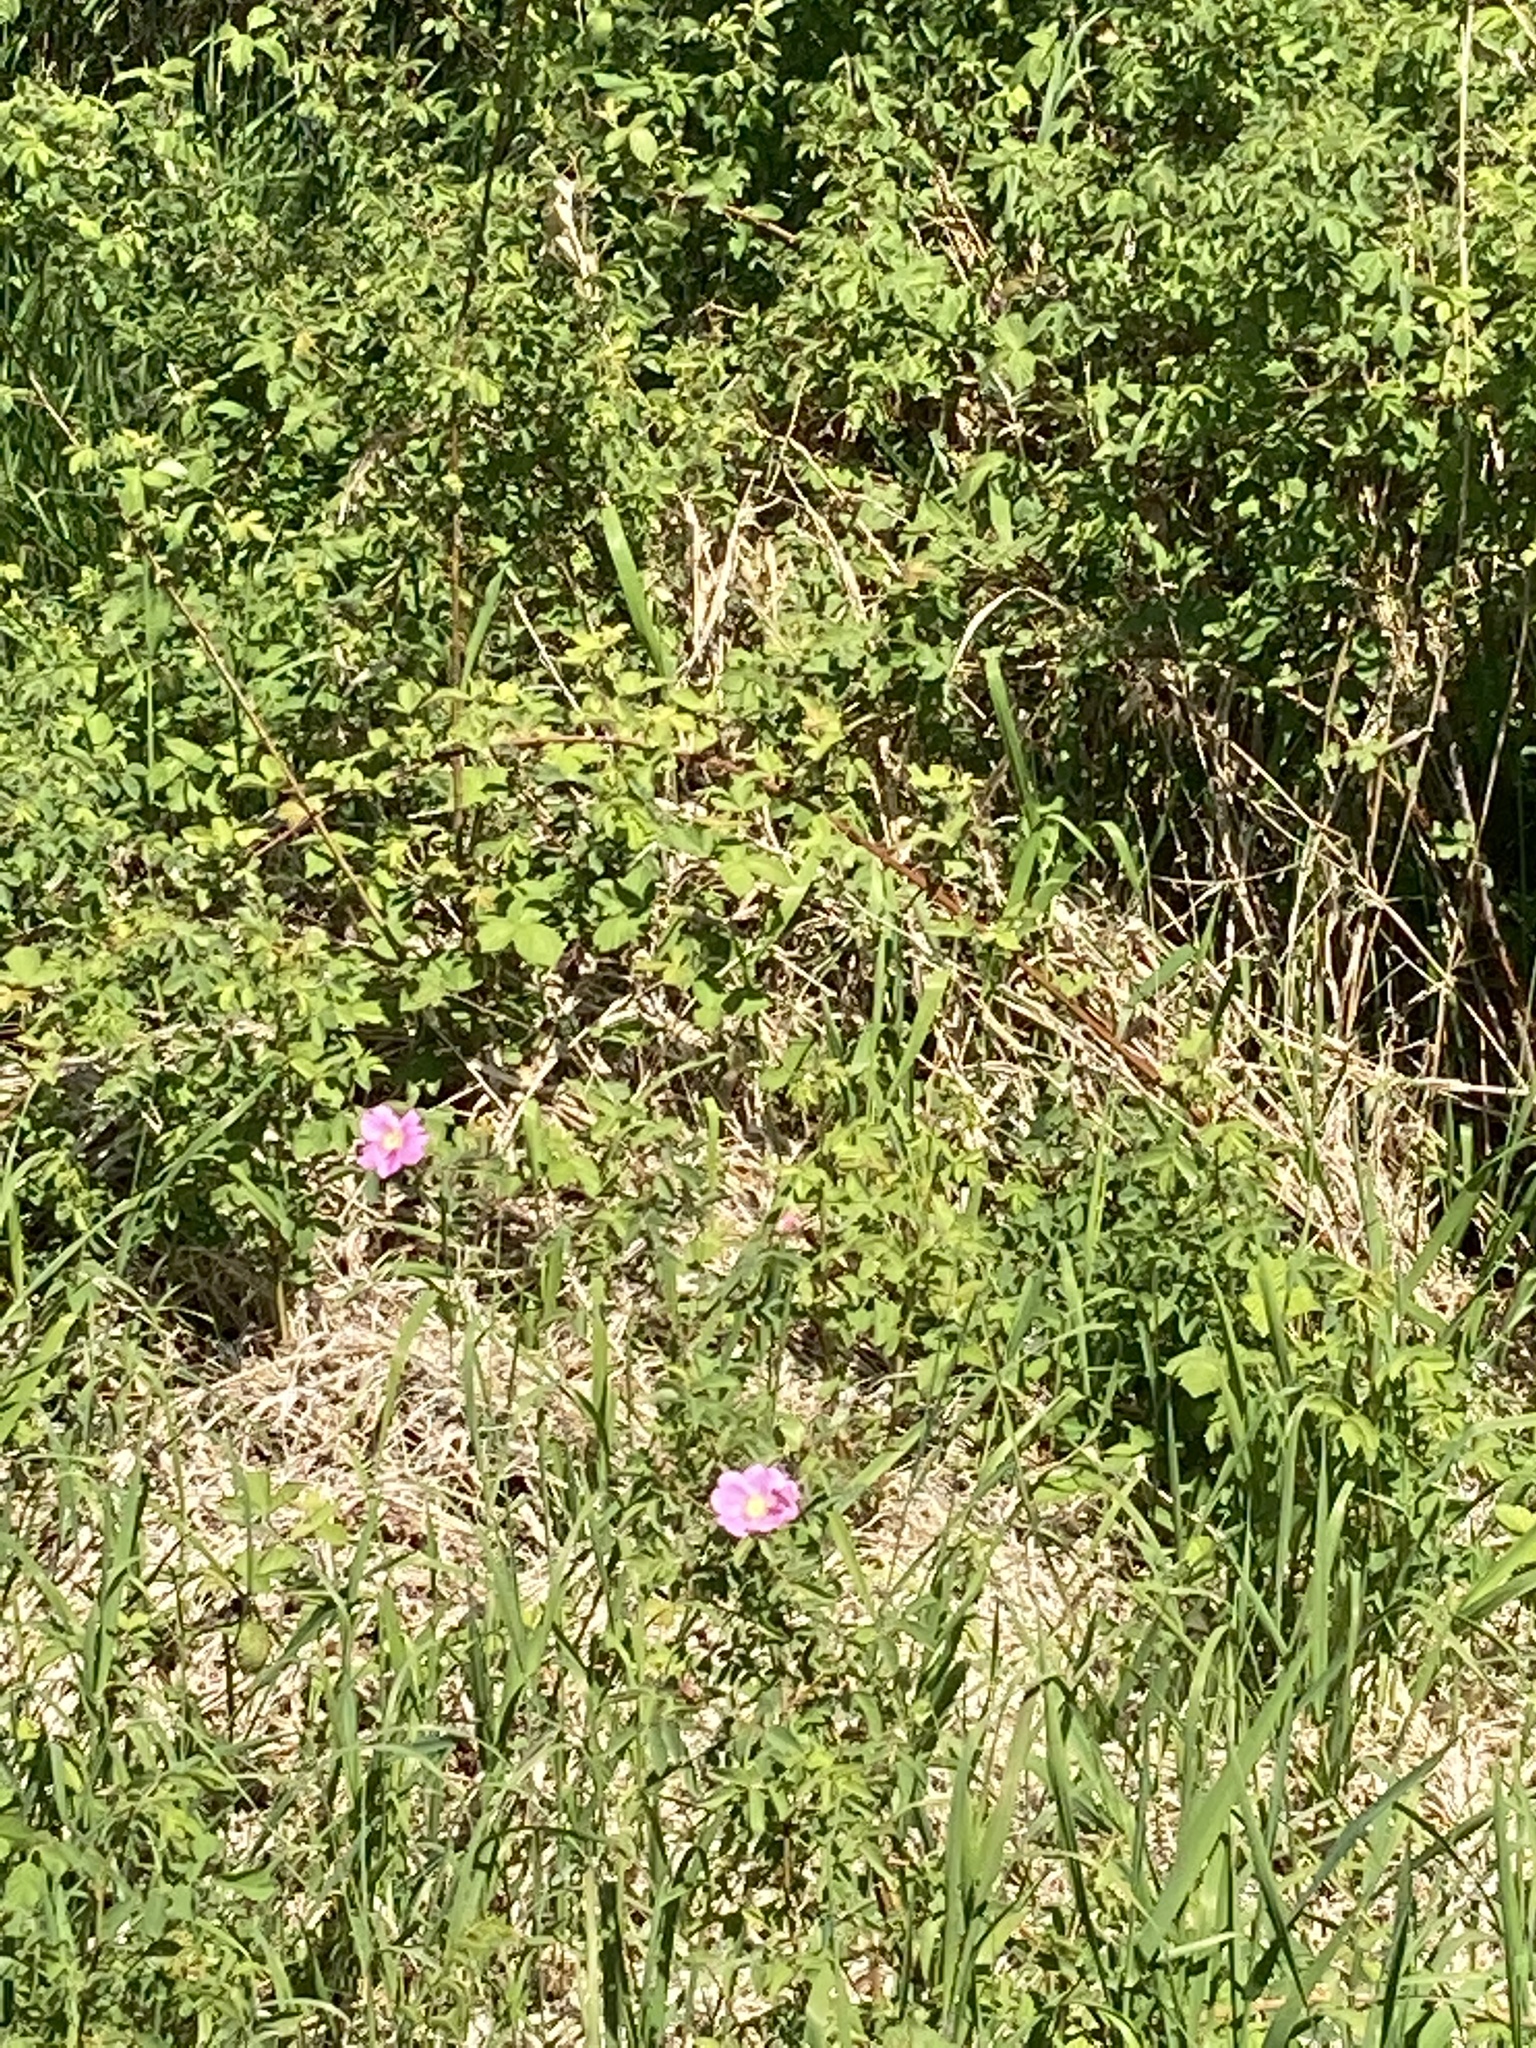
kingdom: Plantae
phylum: Tracheophyta
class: Magnoliopsida
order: Rosales
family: Rosaceae
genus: Rosa
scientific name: Rosa nutkana
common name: Nootka rose
